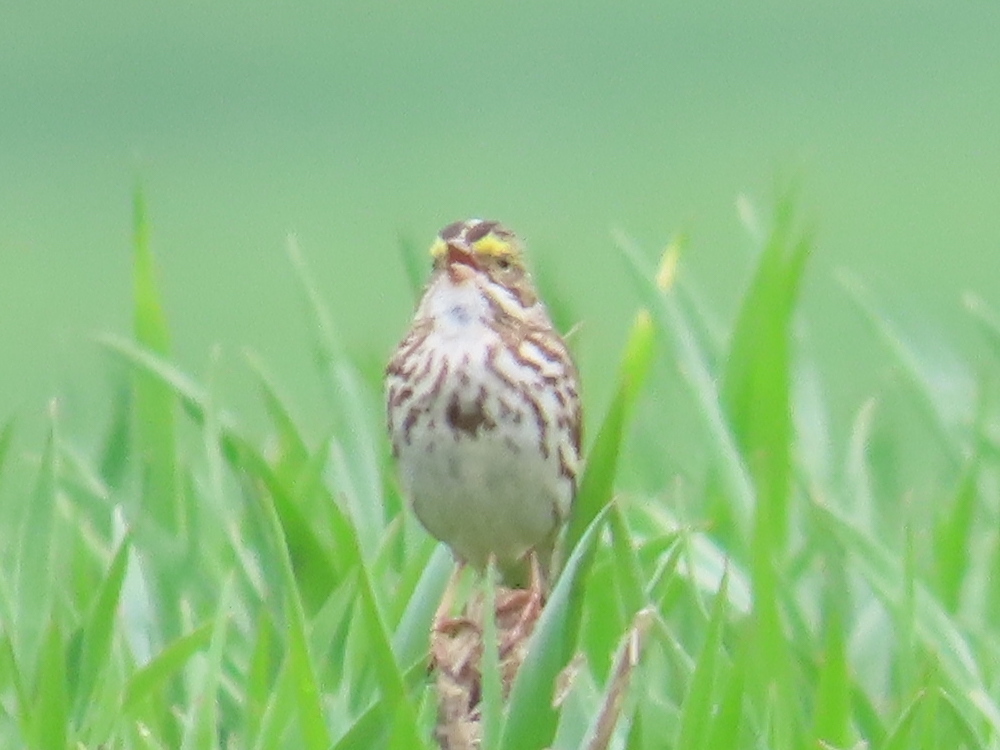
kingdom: Animalia
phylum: Chordata
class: Aves
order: Passeriformes
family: Passerellidae
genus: Passerculus
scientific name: Passerculus sandwichensis
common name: Savannah sparrow
